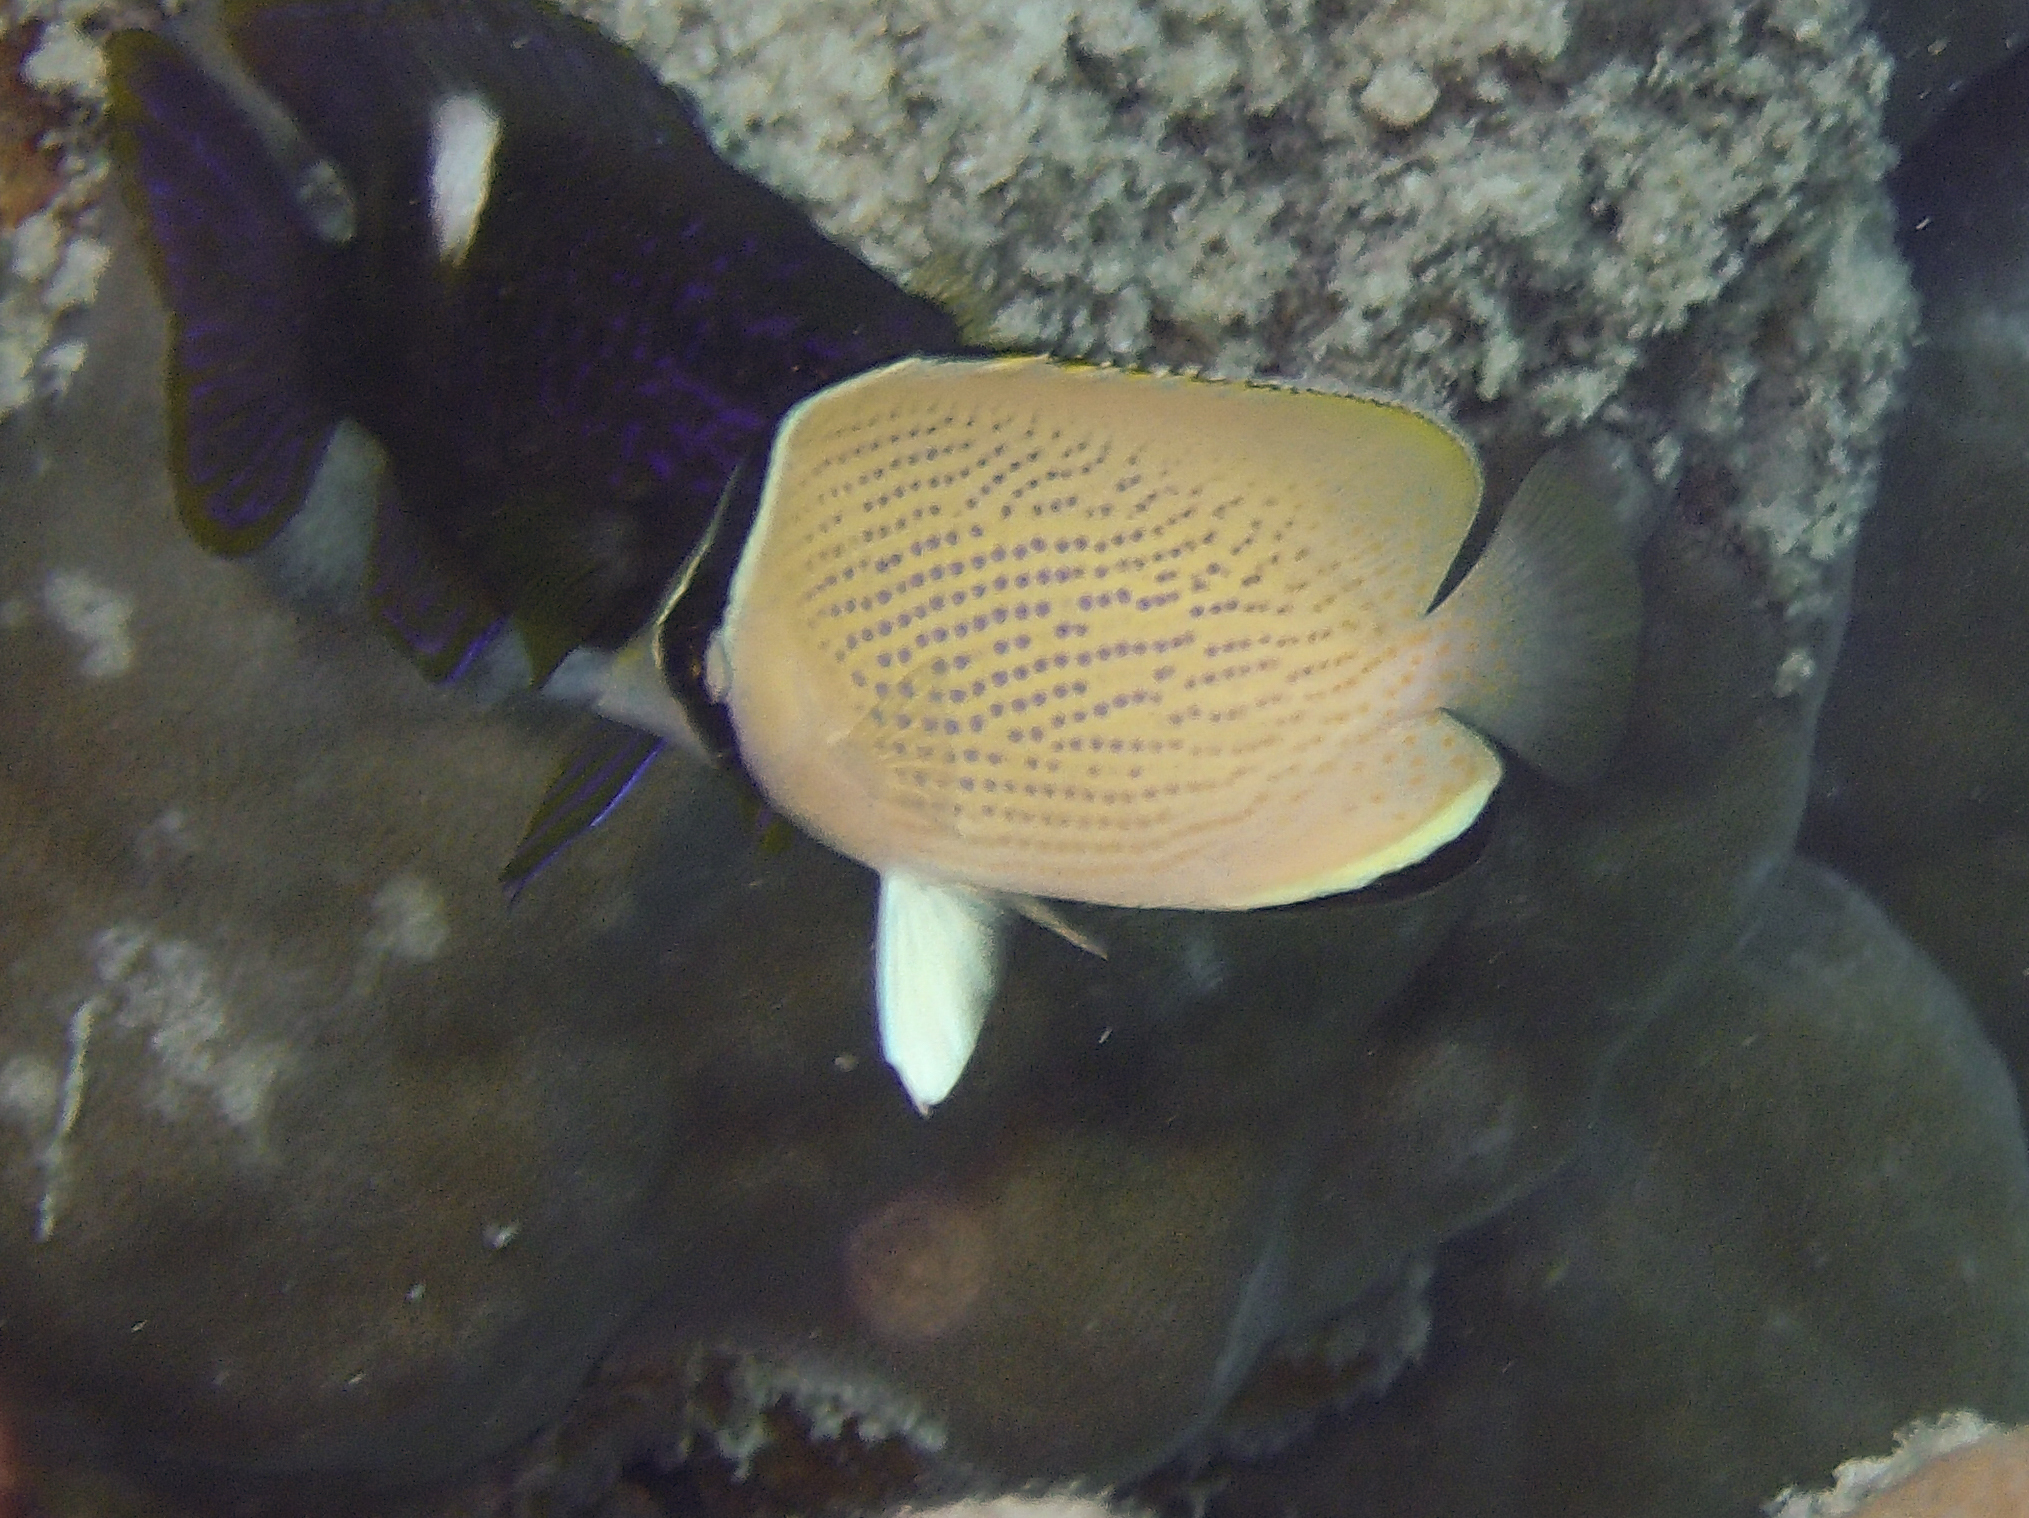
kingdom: Animalia
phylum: Chordata
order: Perciformes
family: Chaetodontidae
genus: Chaetodon
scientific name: Chaetodon citrinellus
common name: Speckled butterflyfish
